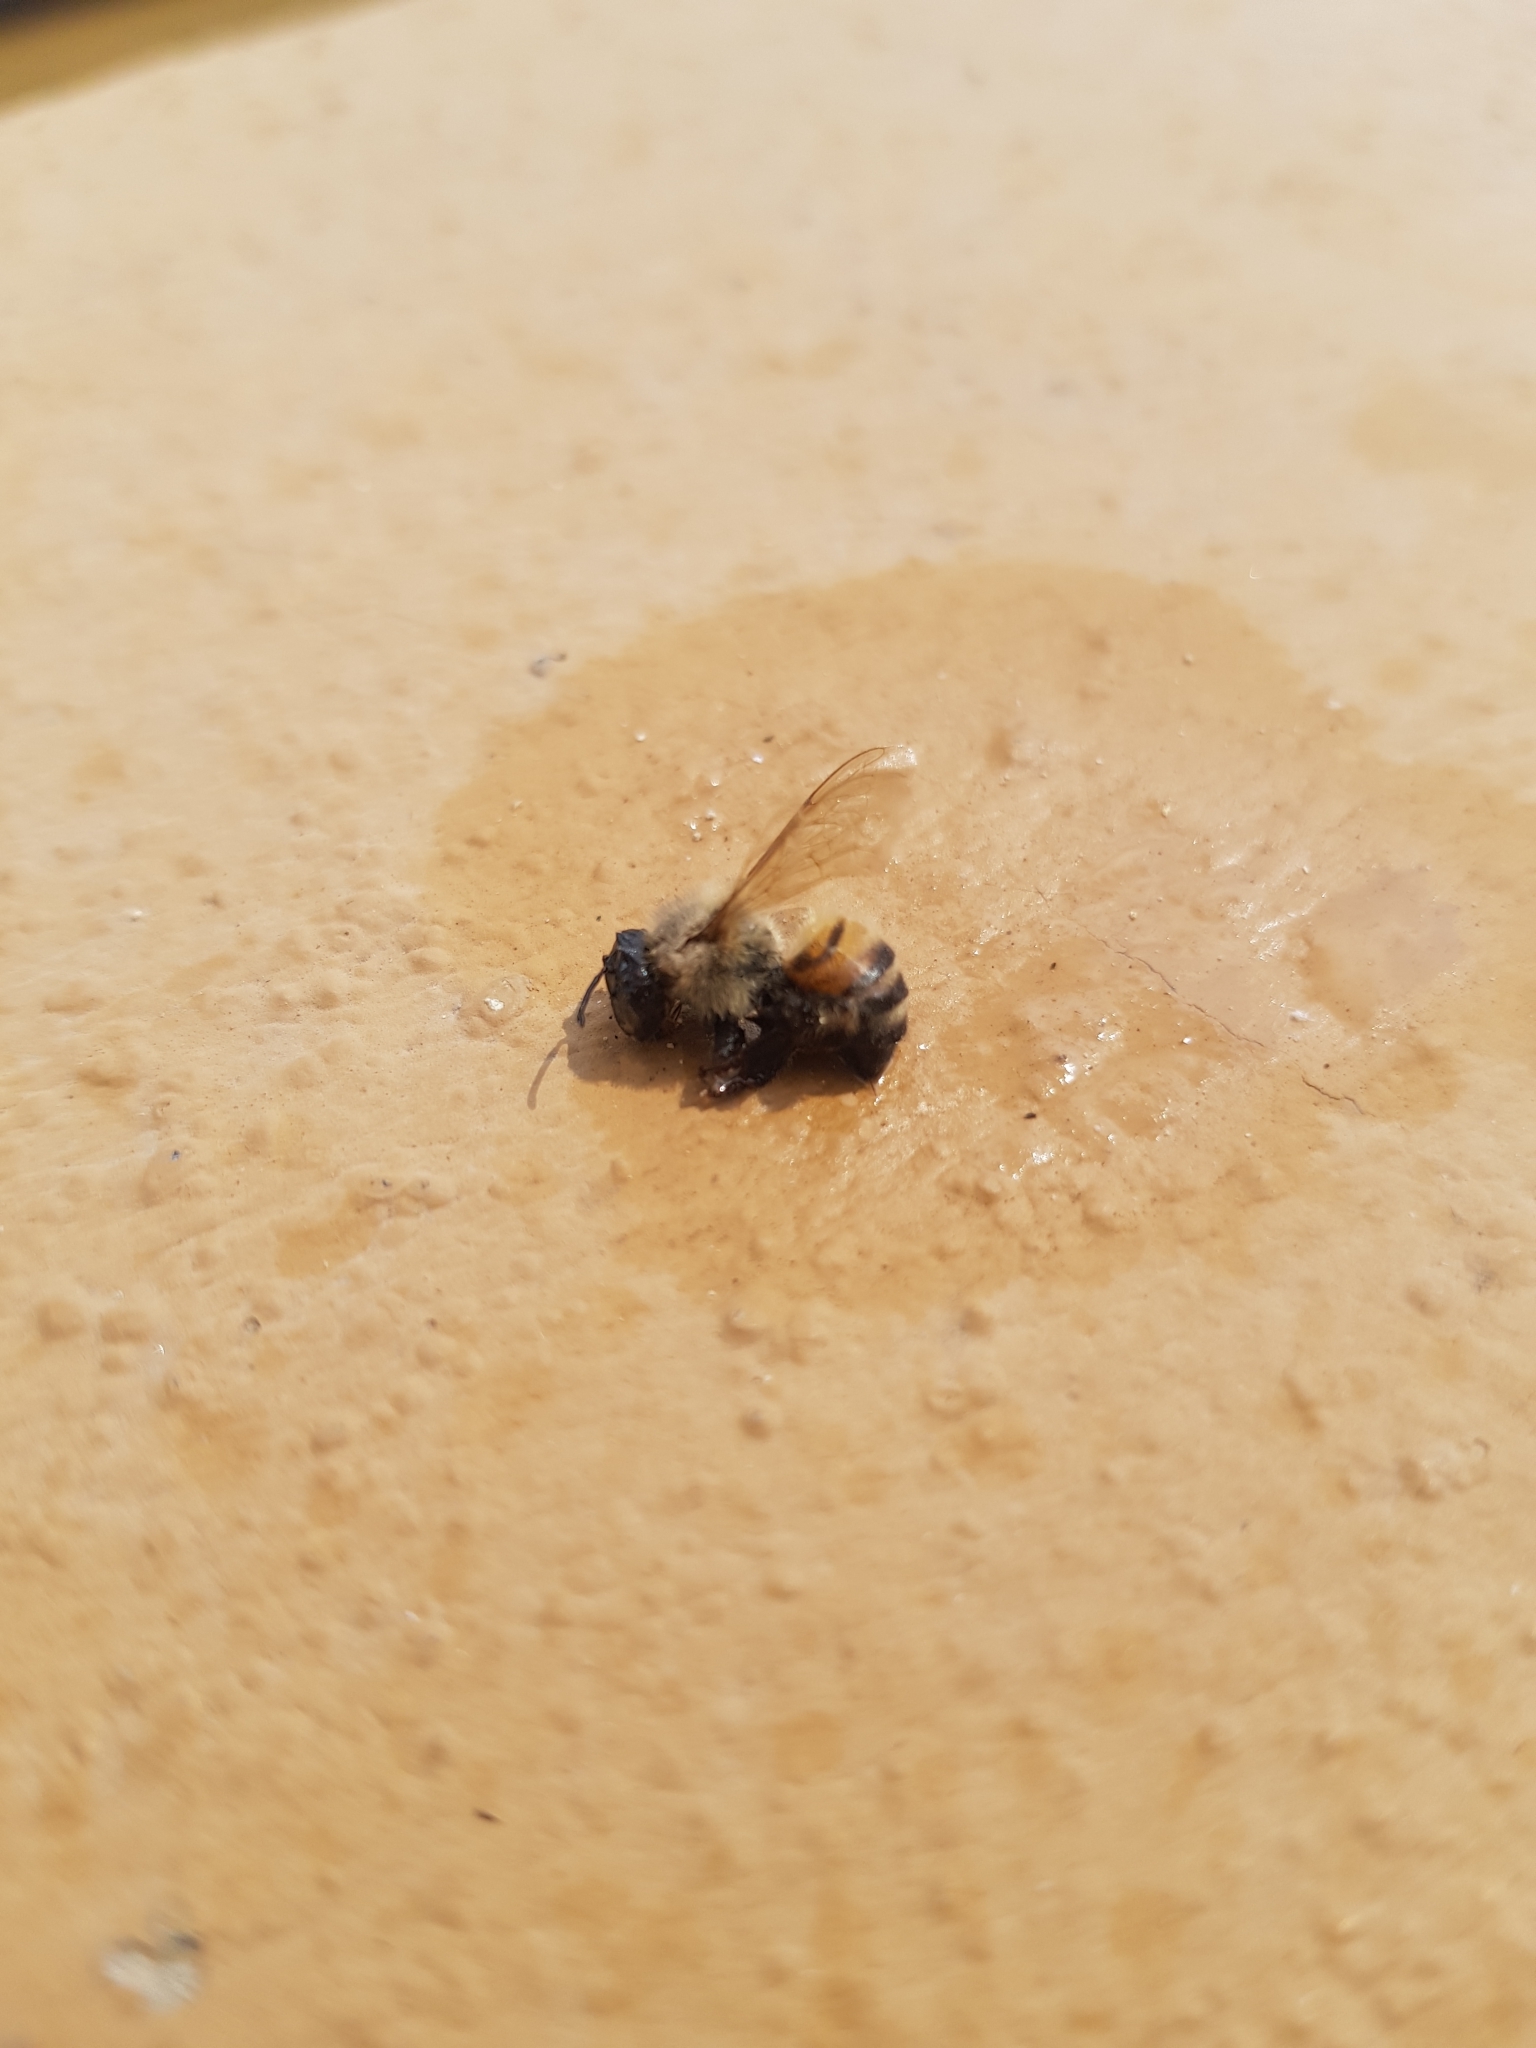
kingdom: Animalia
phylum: Arthropoda
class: Insecta
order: Hymenoptera
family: Apidae
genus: Apis
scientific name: Apis mellifera
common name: Honey bee
